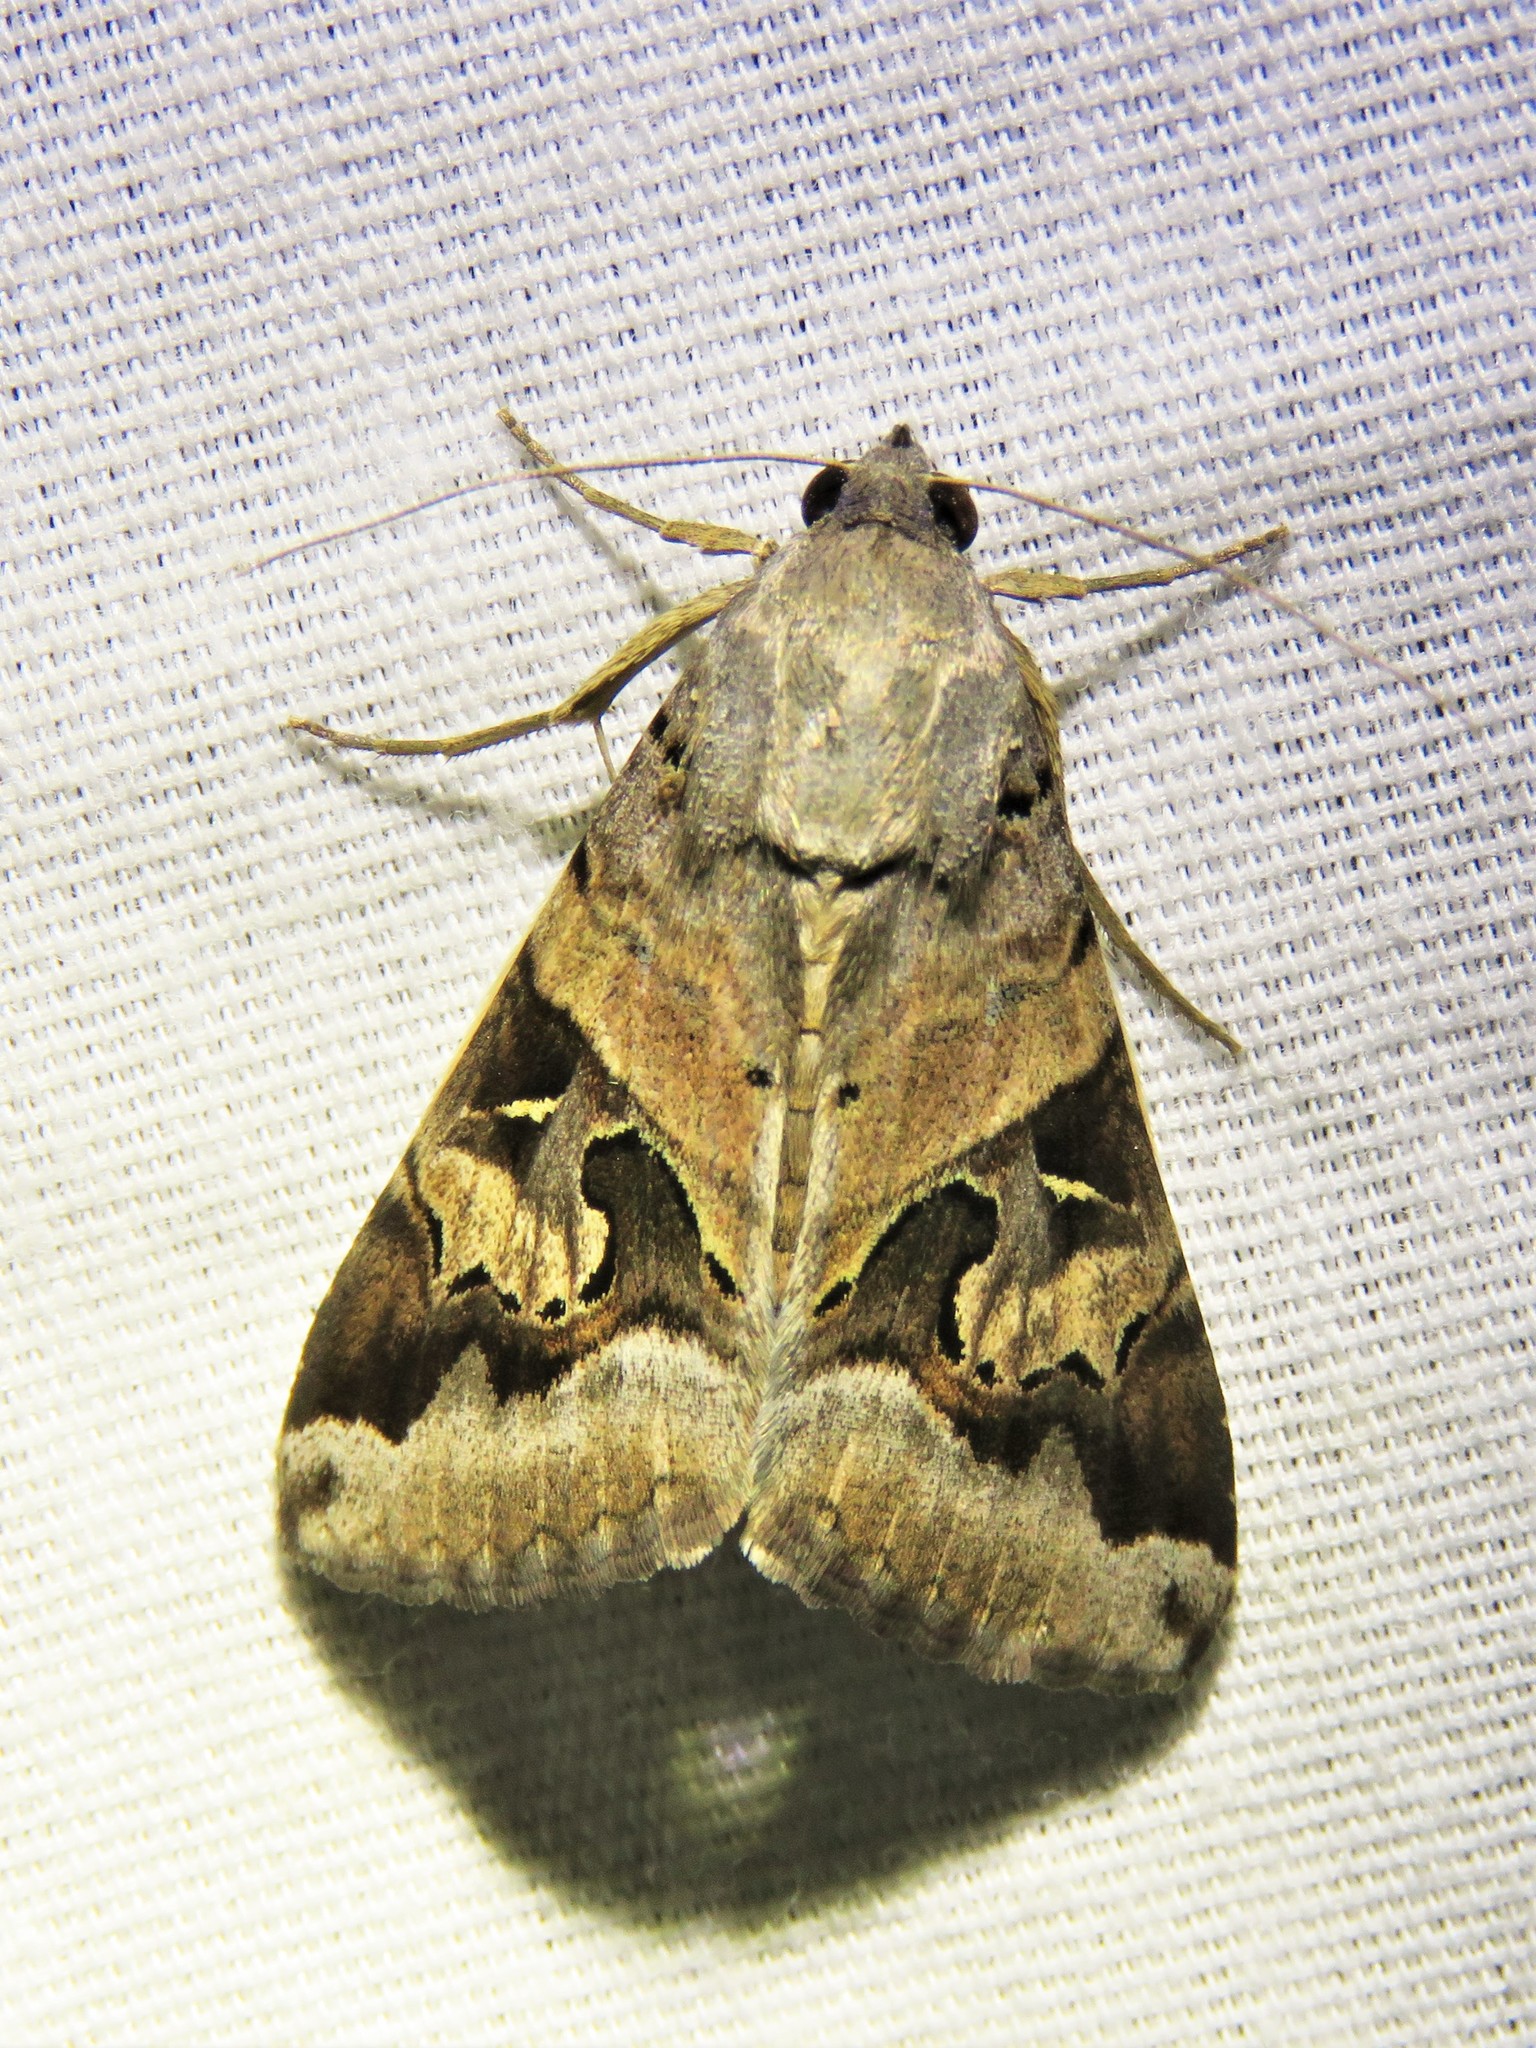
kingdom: Animalia
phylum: Arthropoda
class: Insecta
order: Lepidoptera
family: Erebidae
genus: Melipotis
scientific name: Melipotis indomita
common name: Moth
